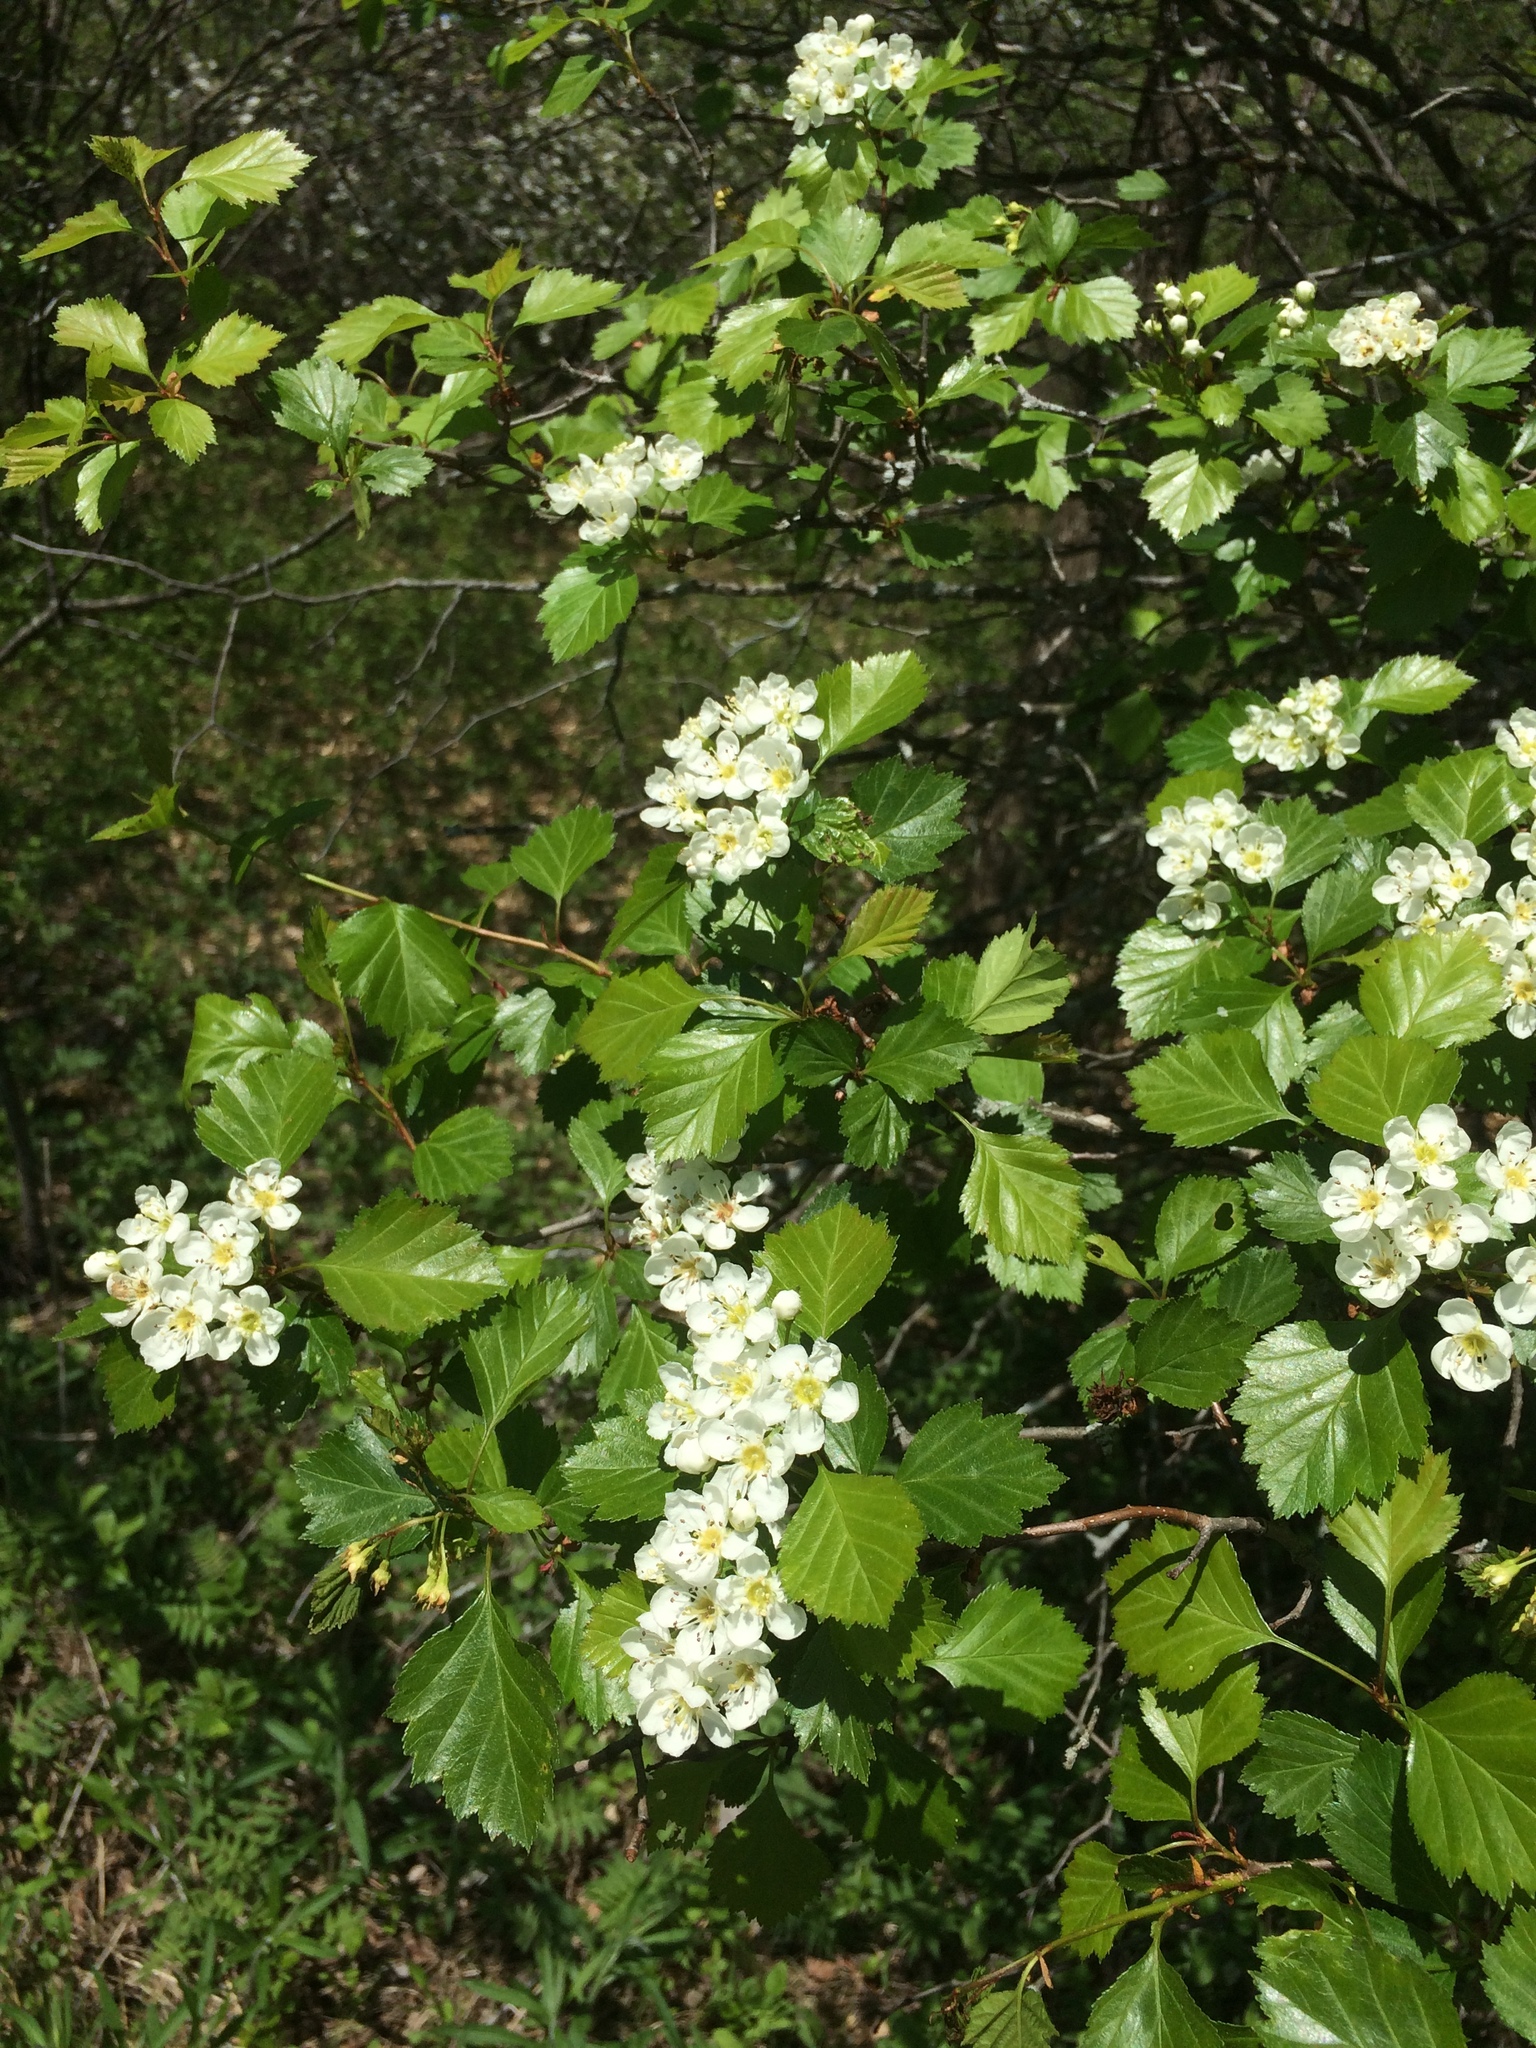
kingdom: Plantae
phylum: Tracheophyta
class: Magnoliopsida
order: Rosales
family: Rosaceae
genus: Crataegus
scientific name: Crataegus chrysocarpa
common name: Fire-berry hawthorn
